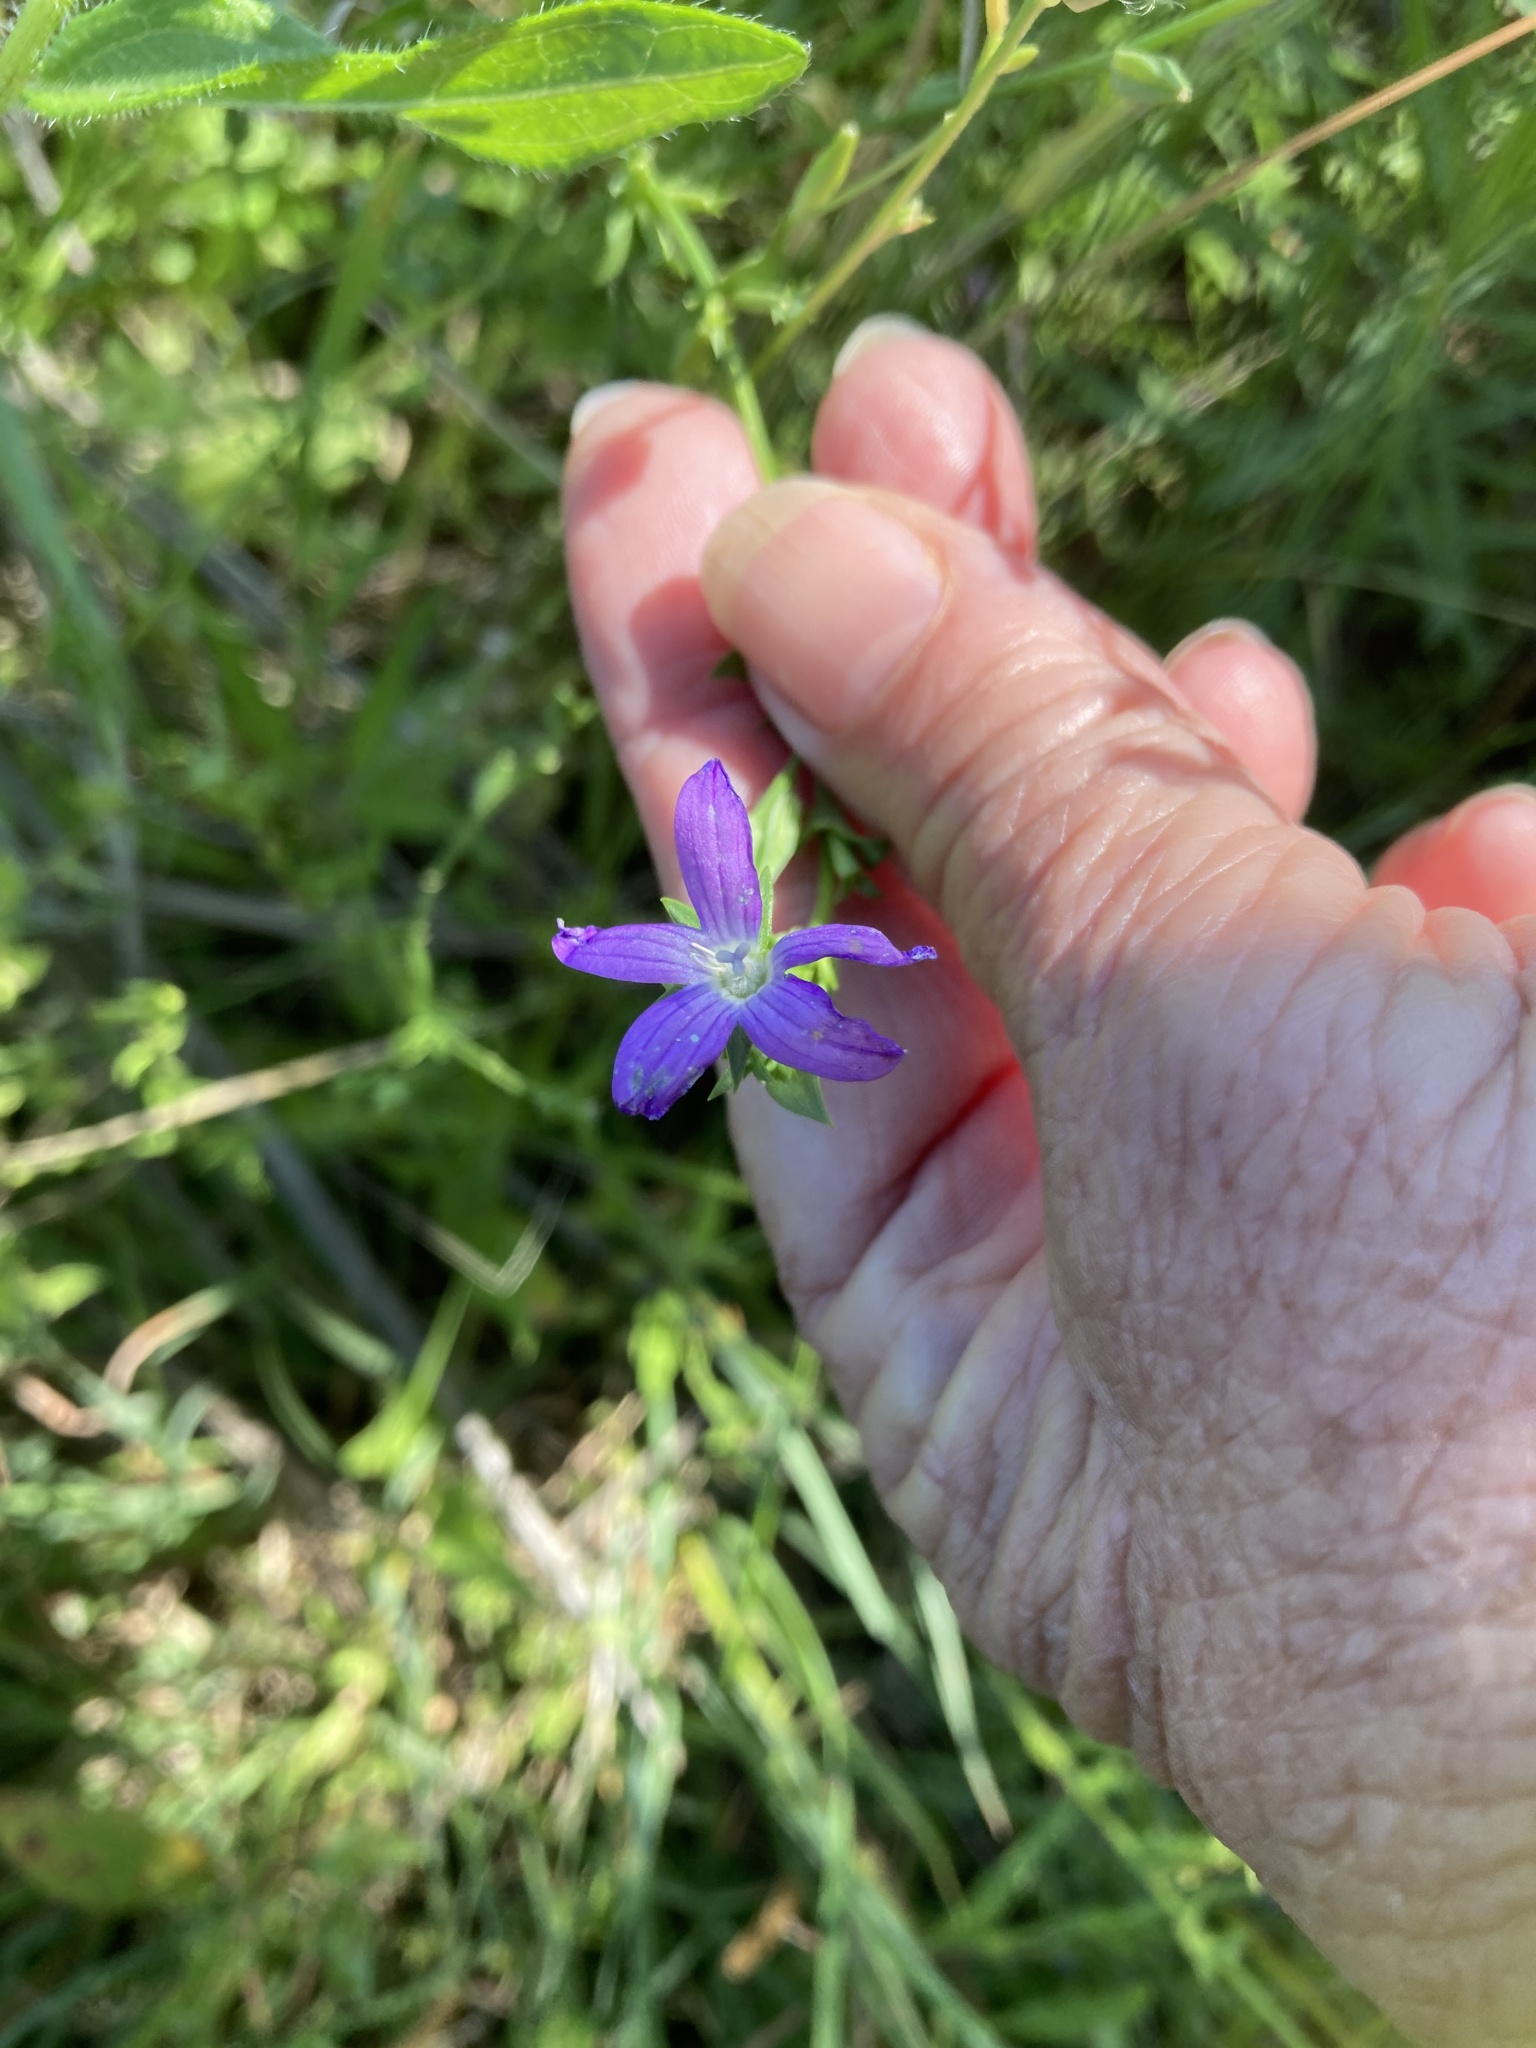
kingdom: Plantae
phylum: Tracheophyta
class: Magnoliopsida
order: Asterales
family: Campanulaceae
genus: Triodanis
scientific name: Triodanis biflora
